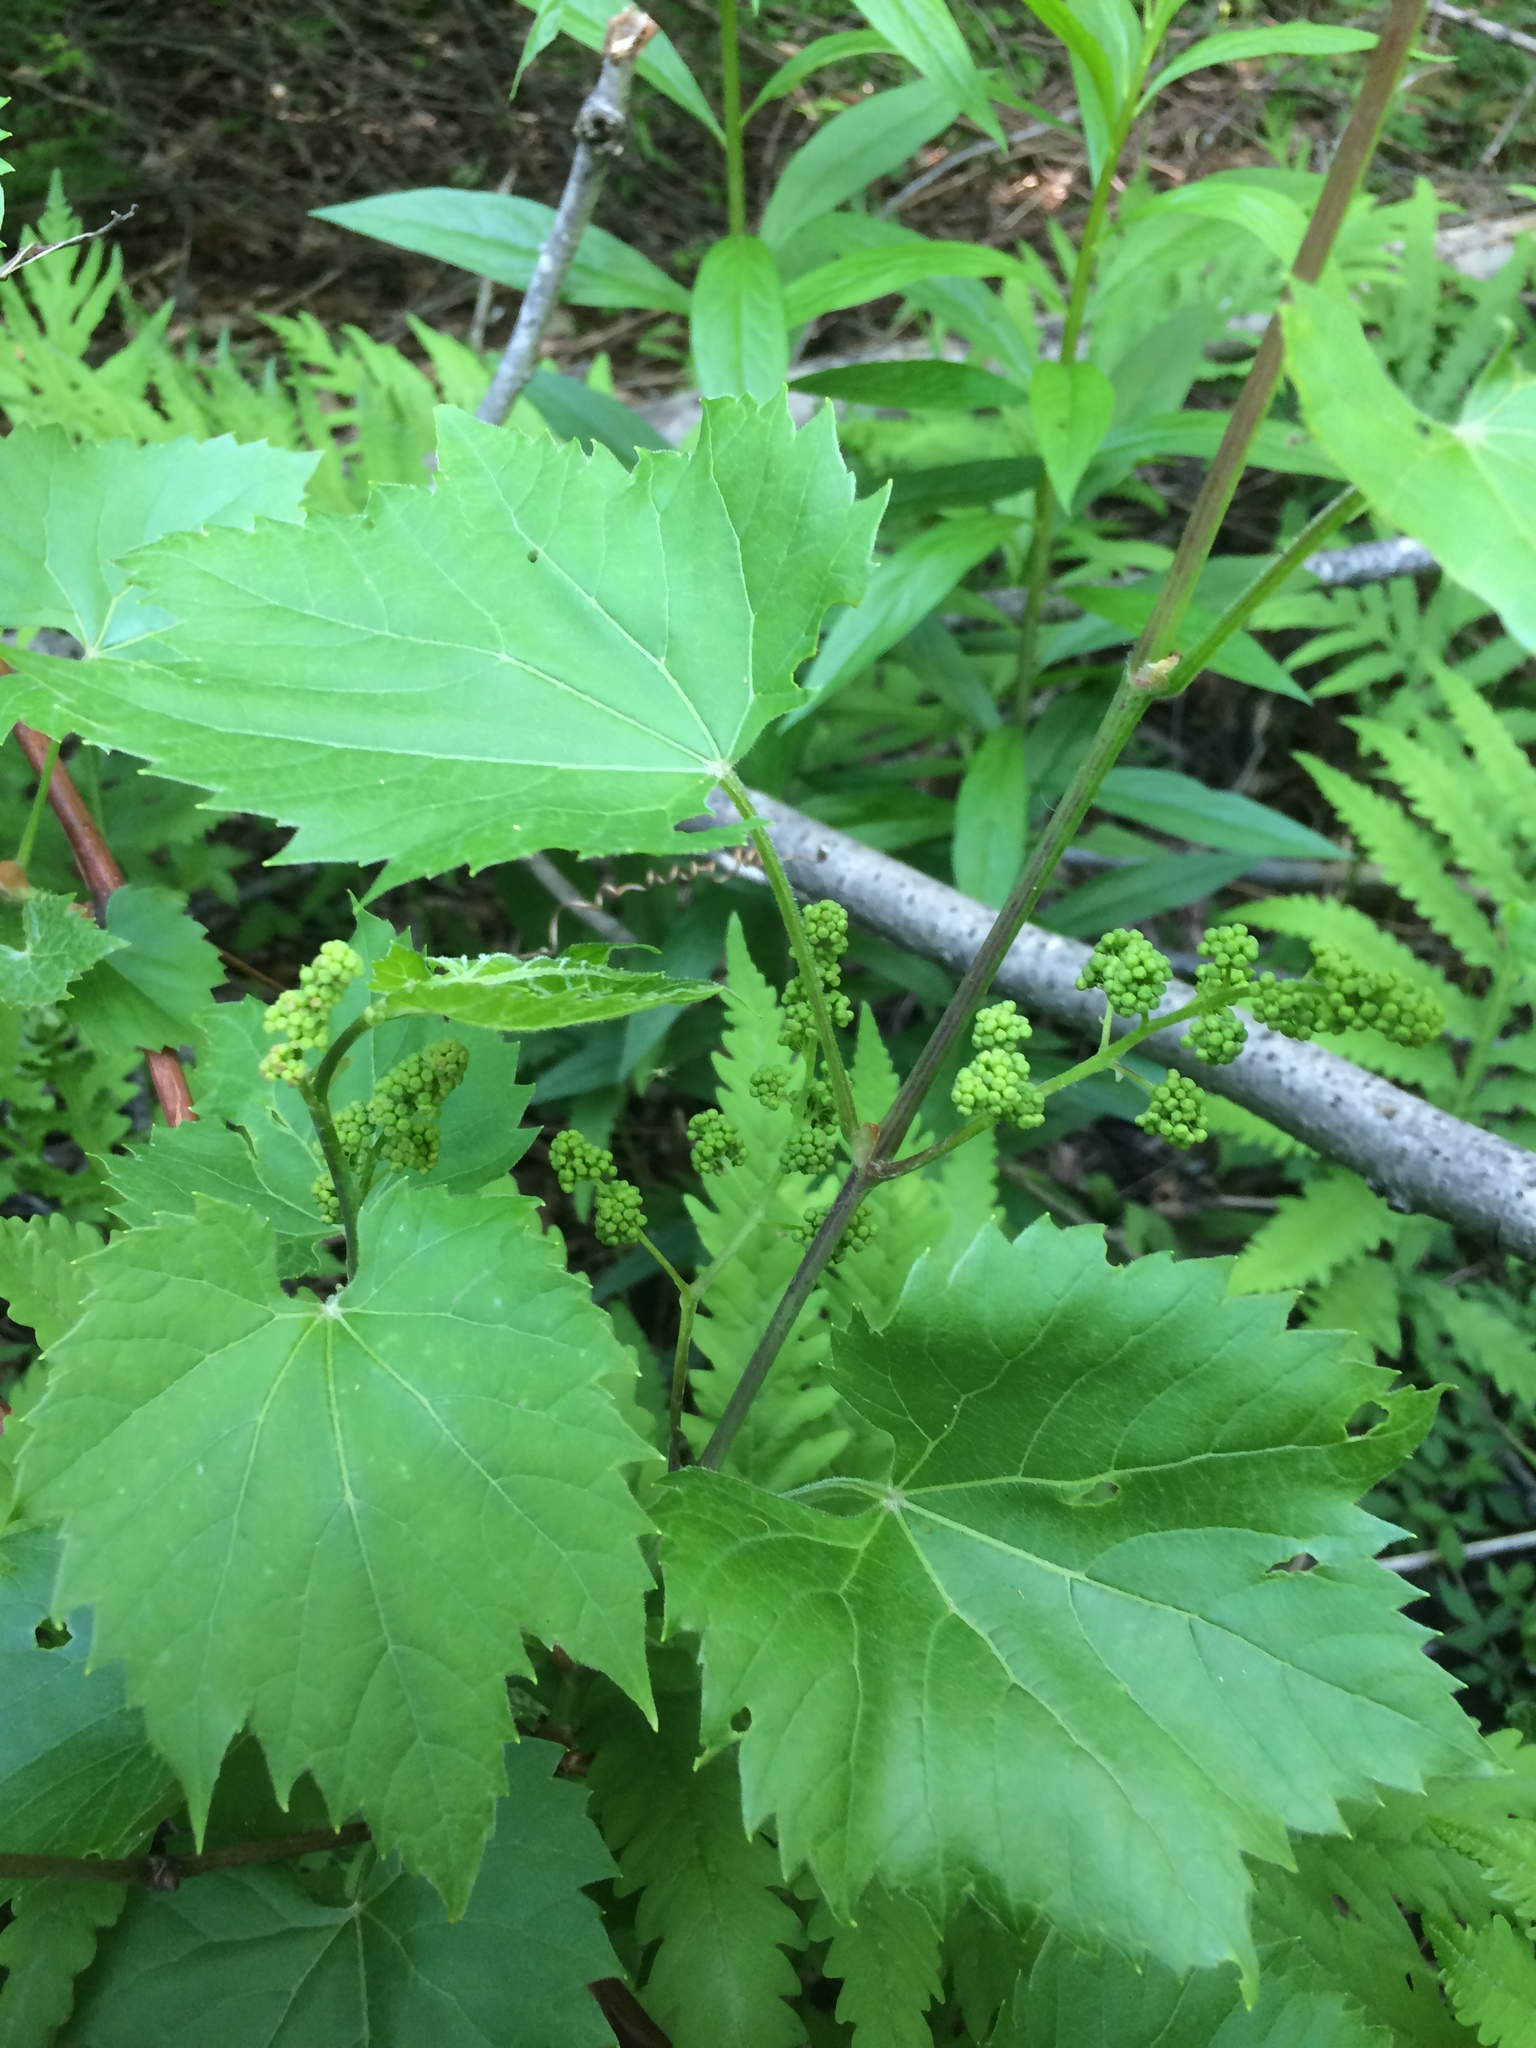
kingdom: Plantae
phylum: Tracheophyta
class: Magnoliopsida
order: Vitales
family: Vitaceae
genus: Vitis
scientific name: Vitis riparia
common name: Frost grape
